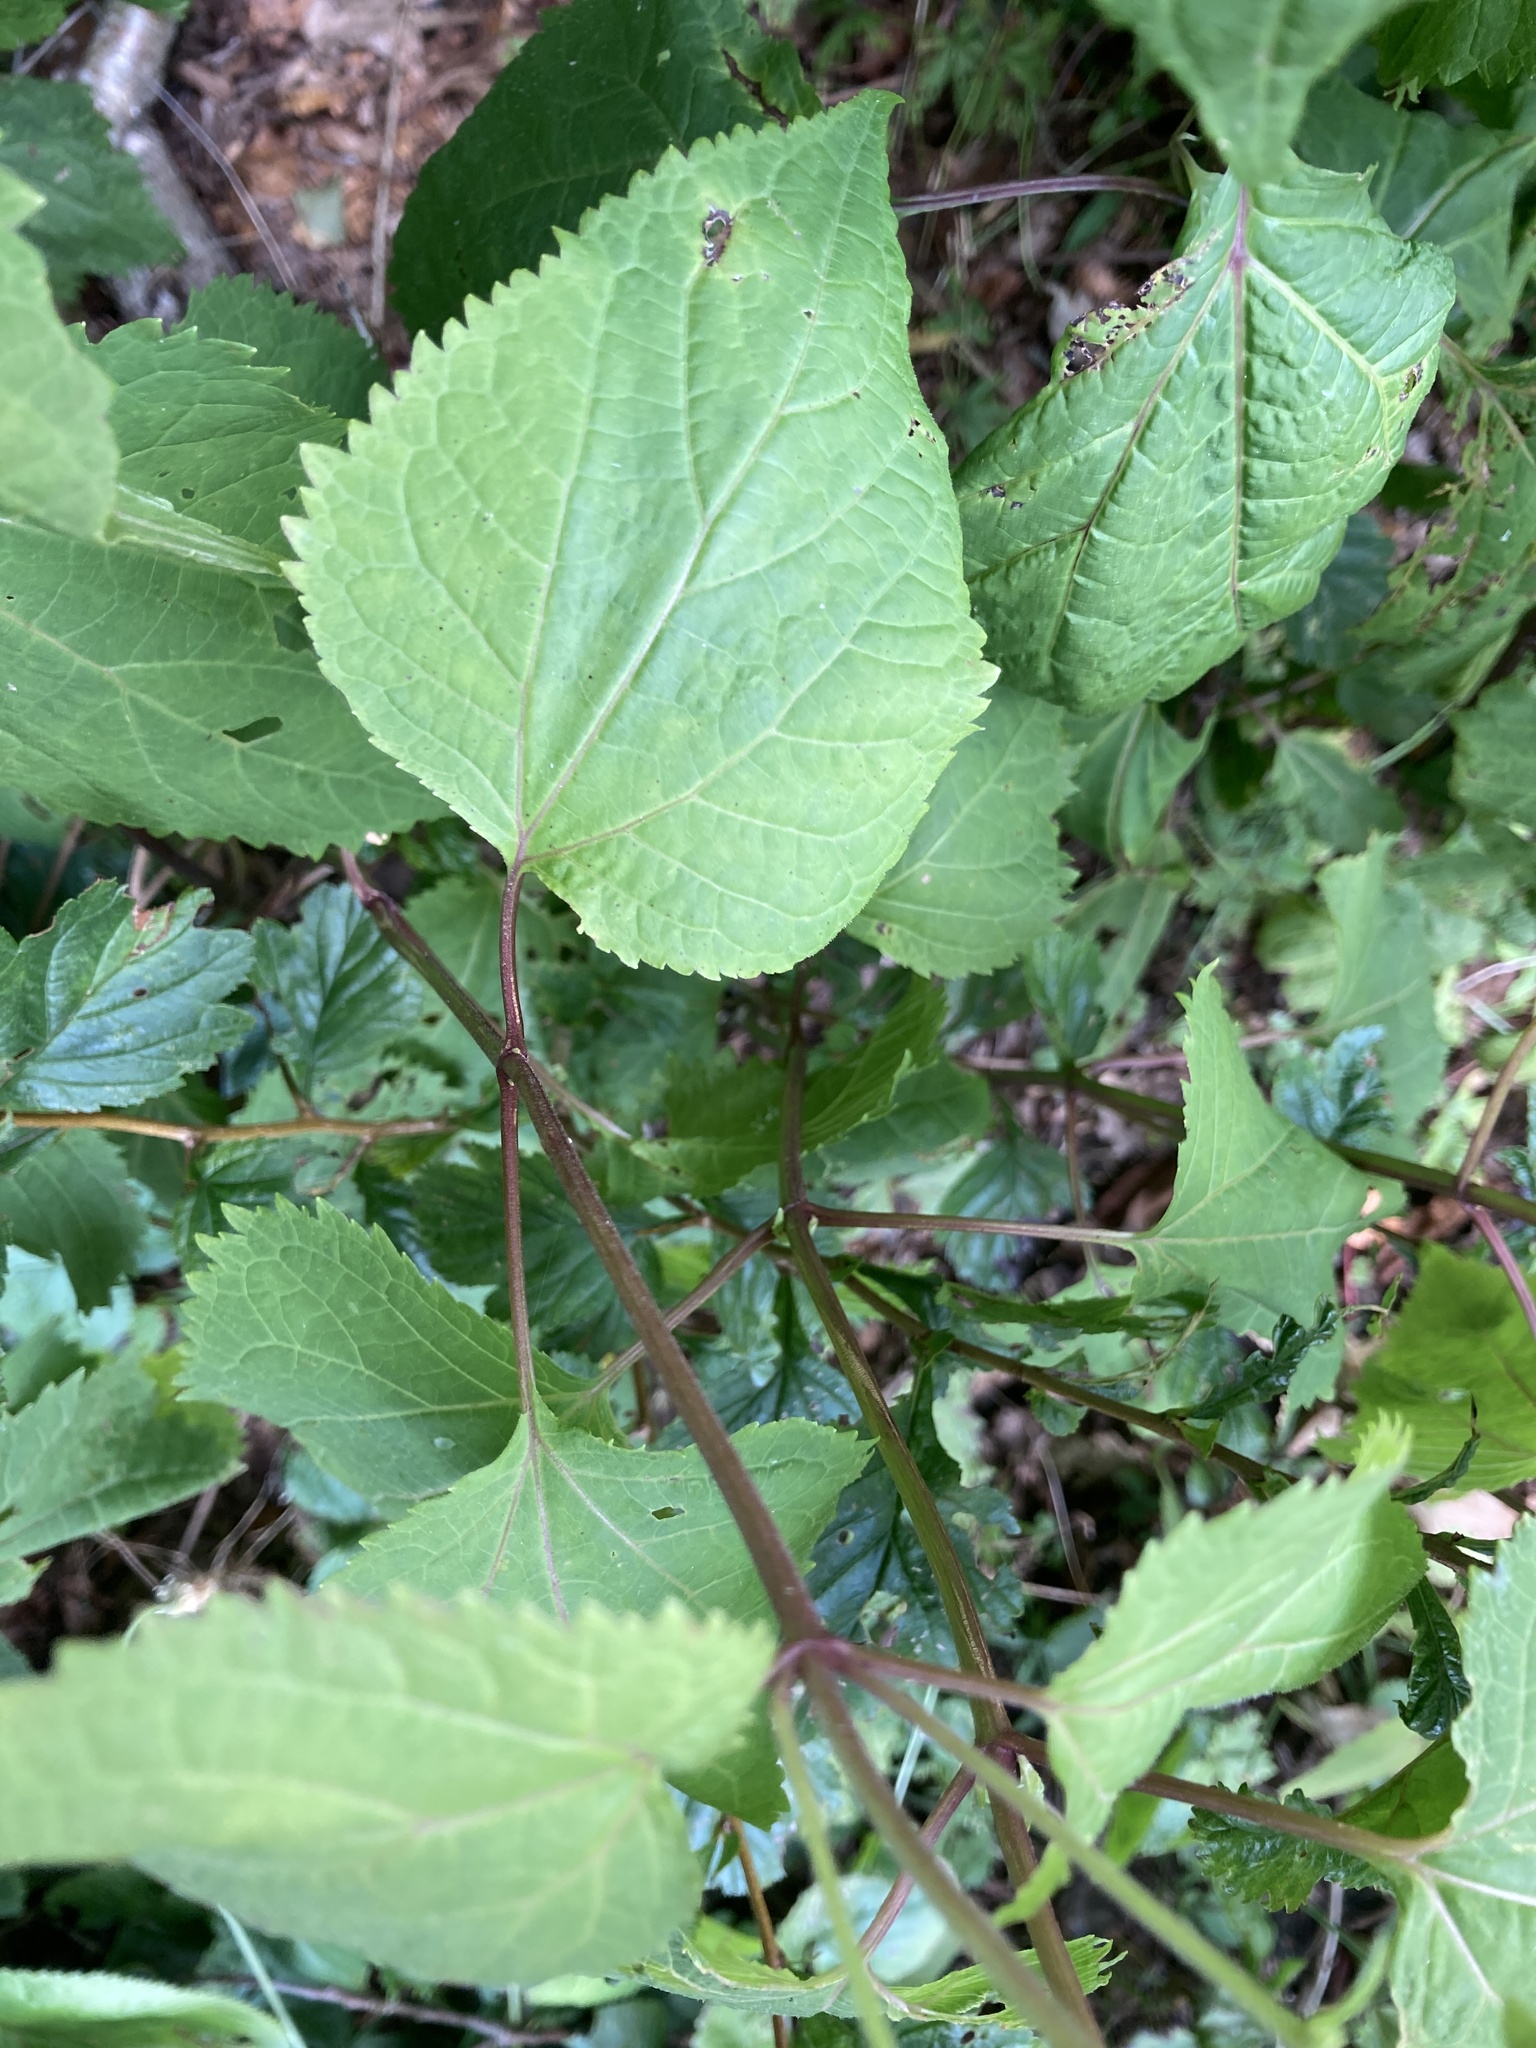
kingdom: Plantae
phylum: Tracheophyta
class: Magnoliopsida
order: Asterales
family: Asteraceae
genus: Ageratina
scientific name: Ageratina altissima
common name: White snakeroot
